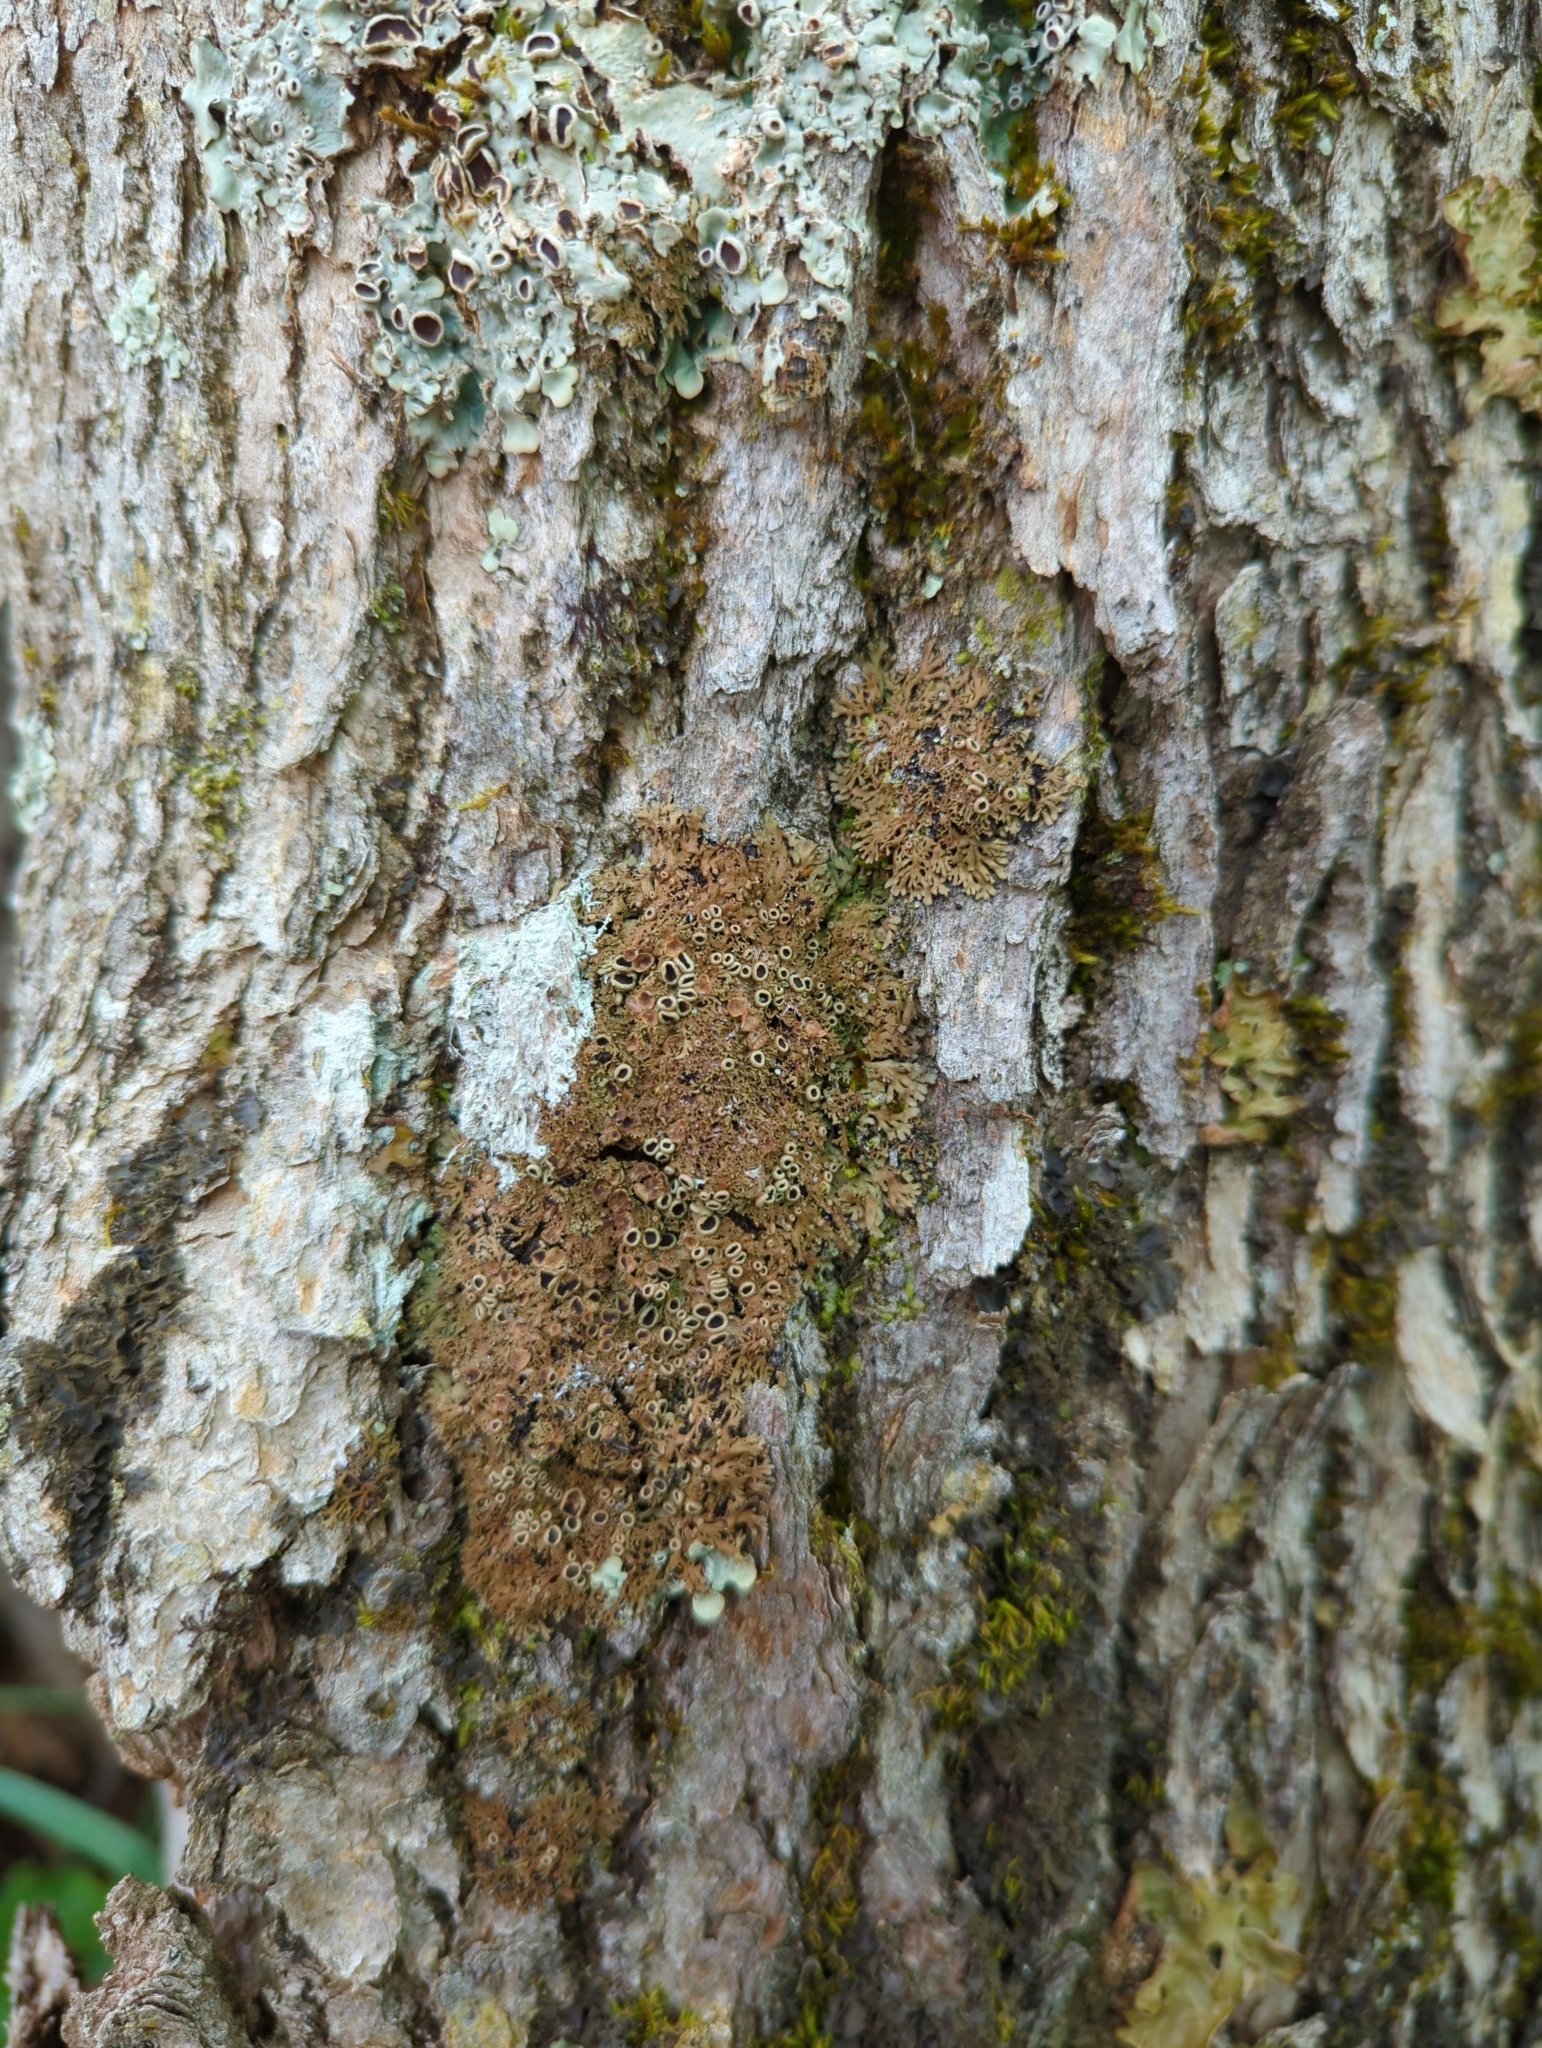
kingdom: Fungi
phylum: Ascomycota
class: Lecanoromycetes
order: Caliciales
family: Physciaceae
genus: Kurokawia
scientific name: Kurokawia palmulata
